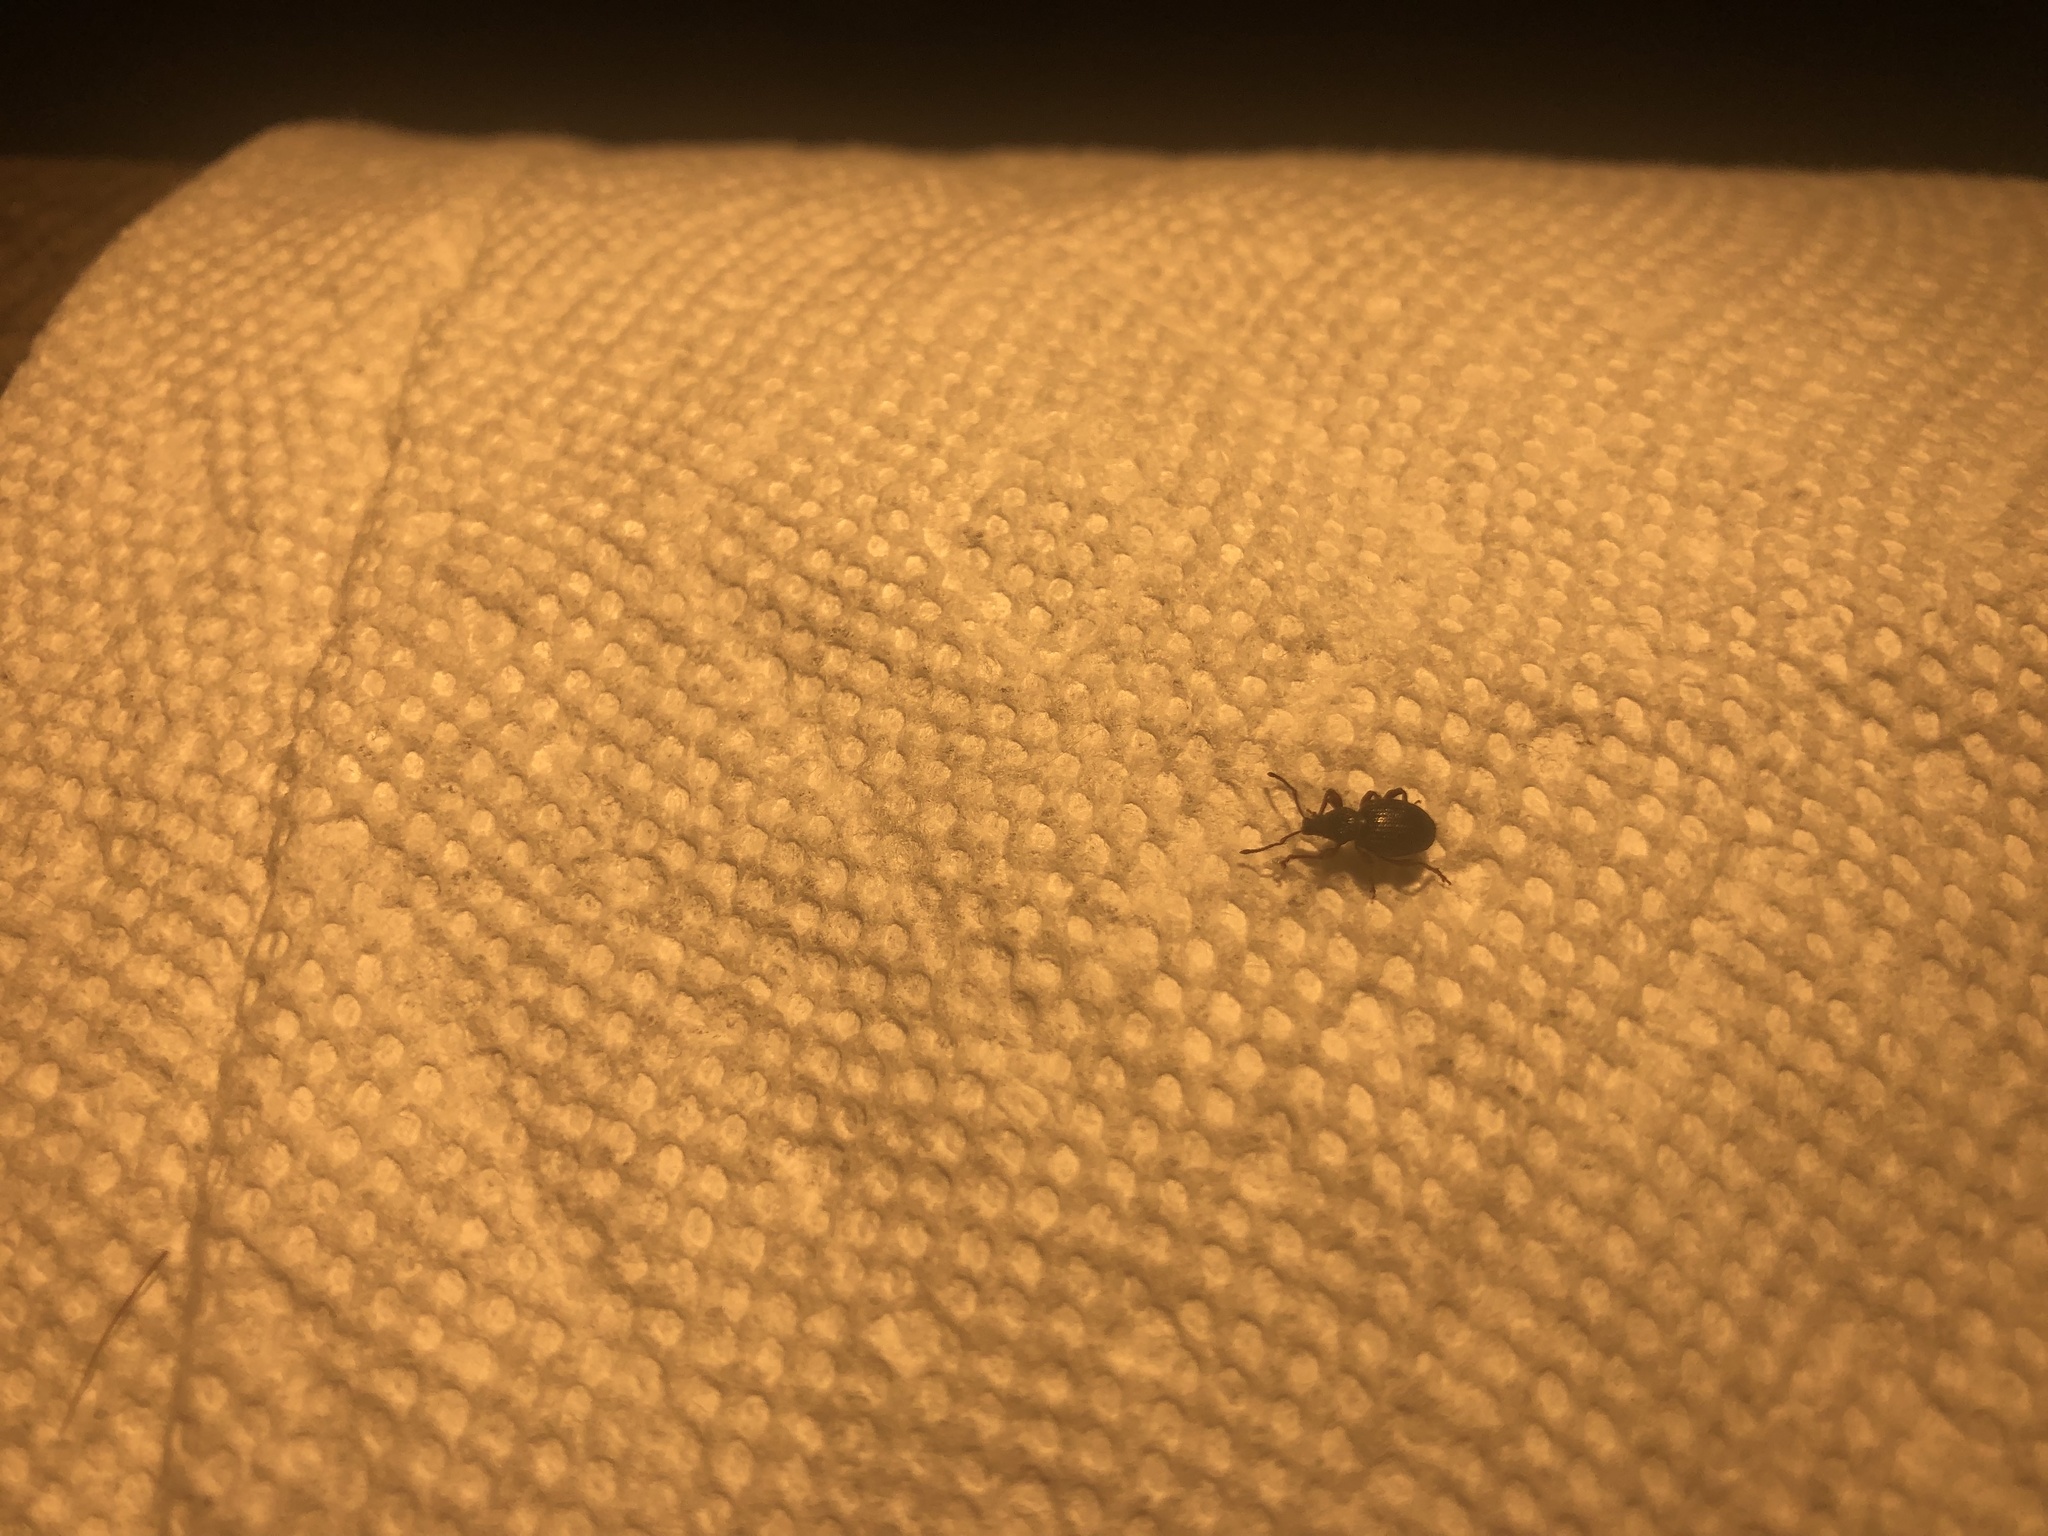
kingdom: Animalia
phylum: Arthropoda
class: Insecta
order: Coleoptera
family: Curculionidae
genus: Otiorhynchus
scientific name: Otiorhynchus ovatus
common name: Strawberry root weevil
